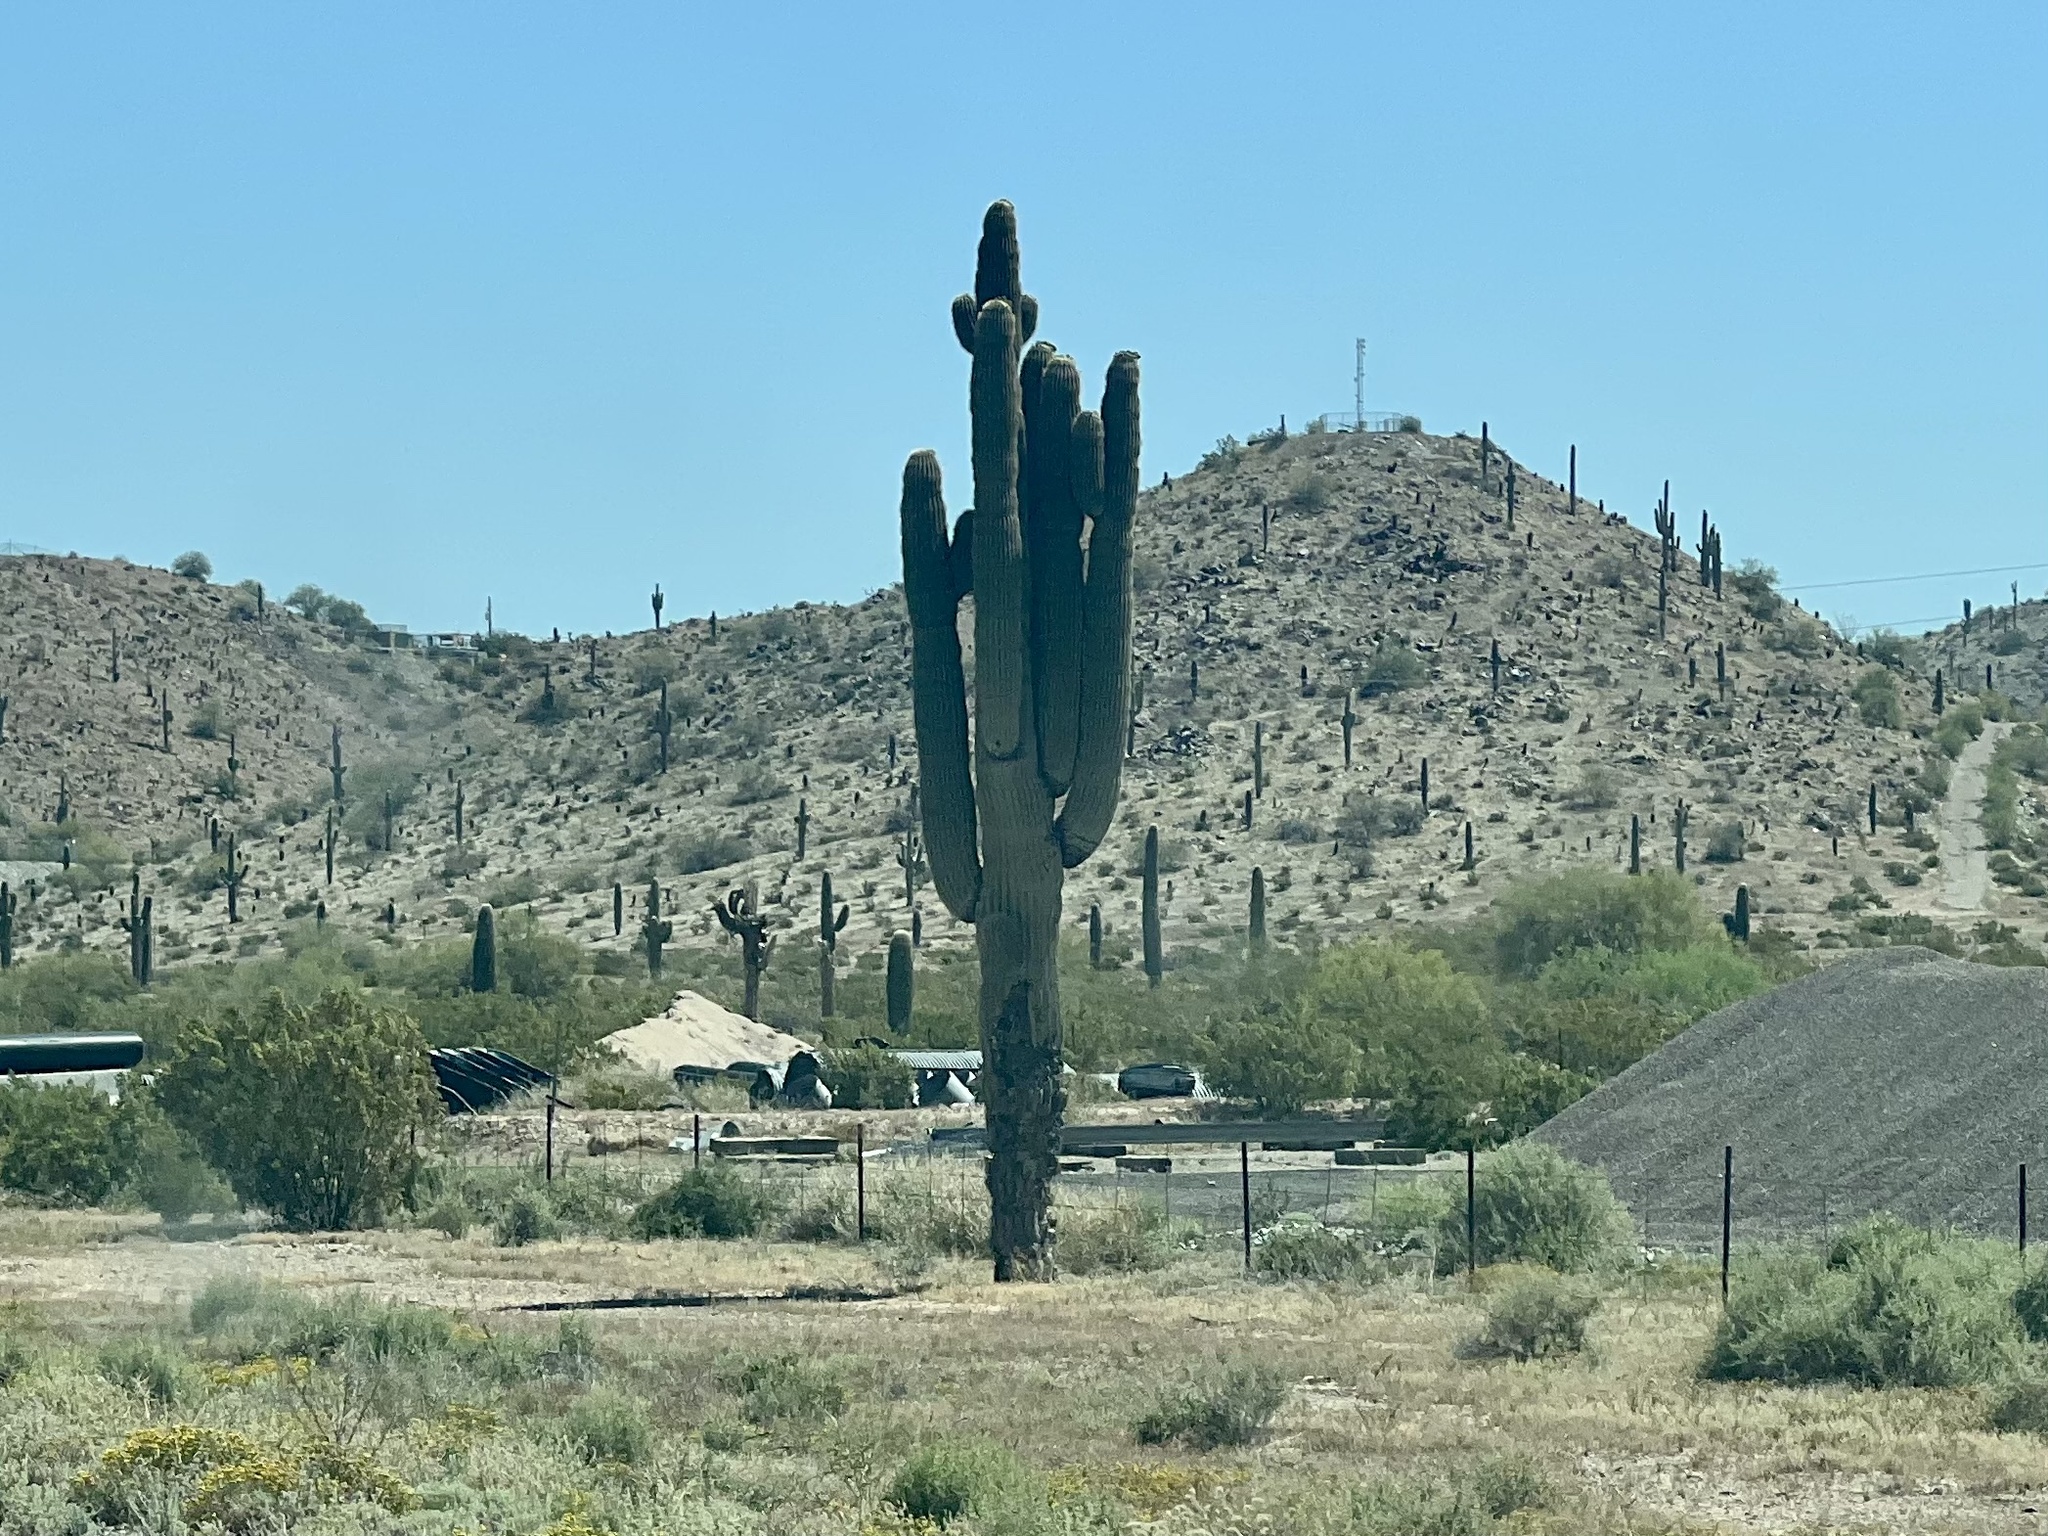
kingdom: Plantae
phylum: Tracheophyta
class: Magnoliopsida
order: Caryophyllales
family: Cactaceae
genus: Carnegiea
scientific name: Carnegiea gigantea
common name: Saguaro
